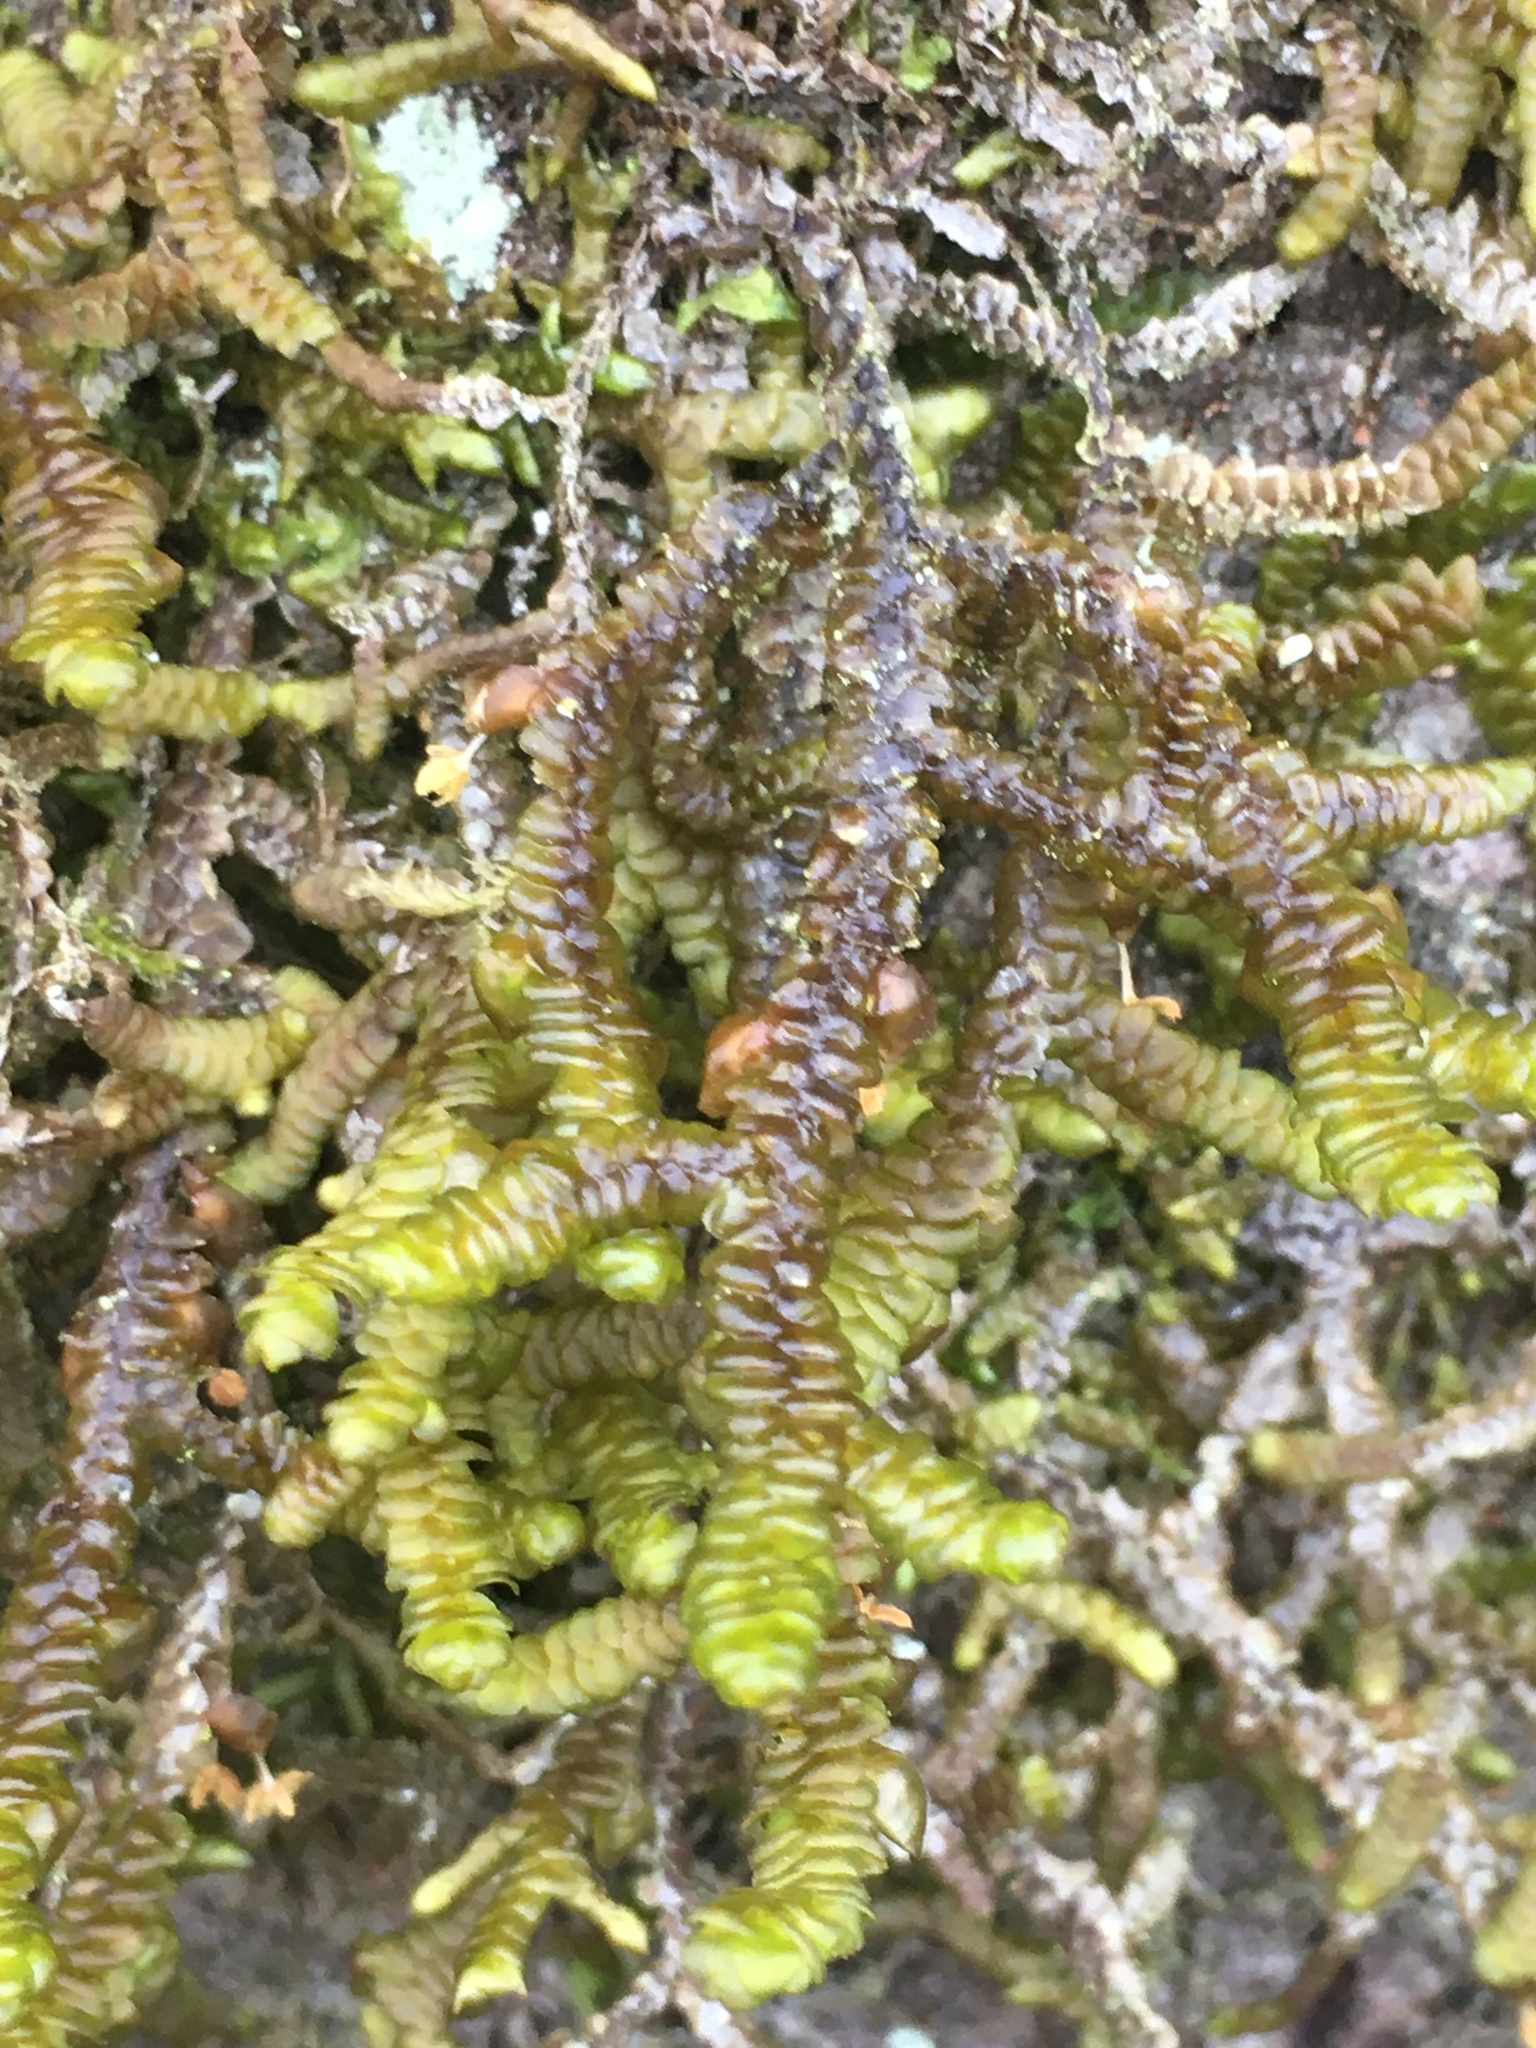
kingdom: Plantae
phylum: Marchantiophyta
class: Jungermanniopsida
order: Porellales
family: Porellaceae
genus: Porella
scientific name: Porella navicularis
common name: Tree ruffle liverwort
